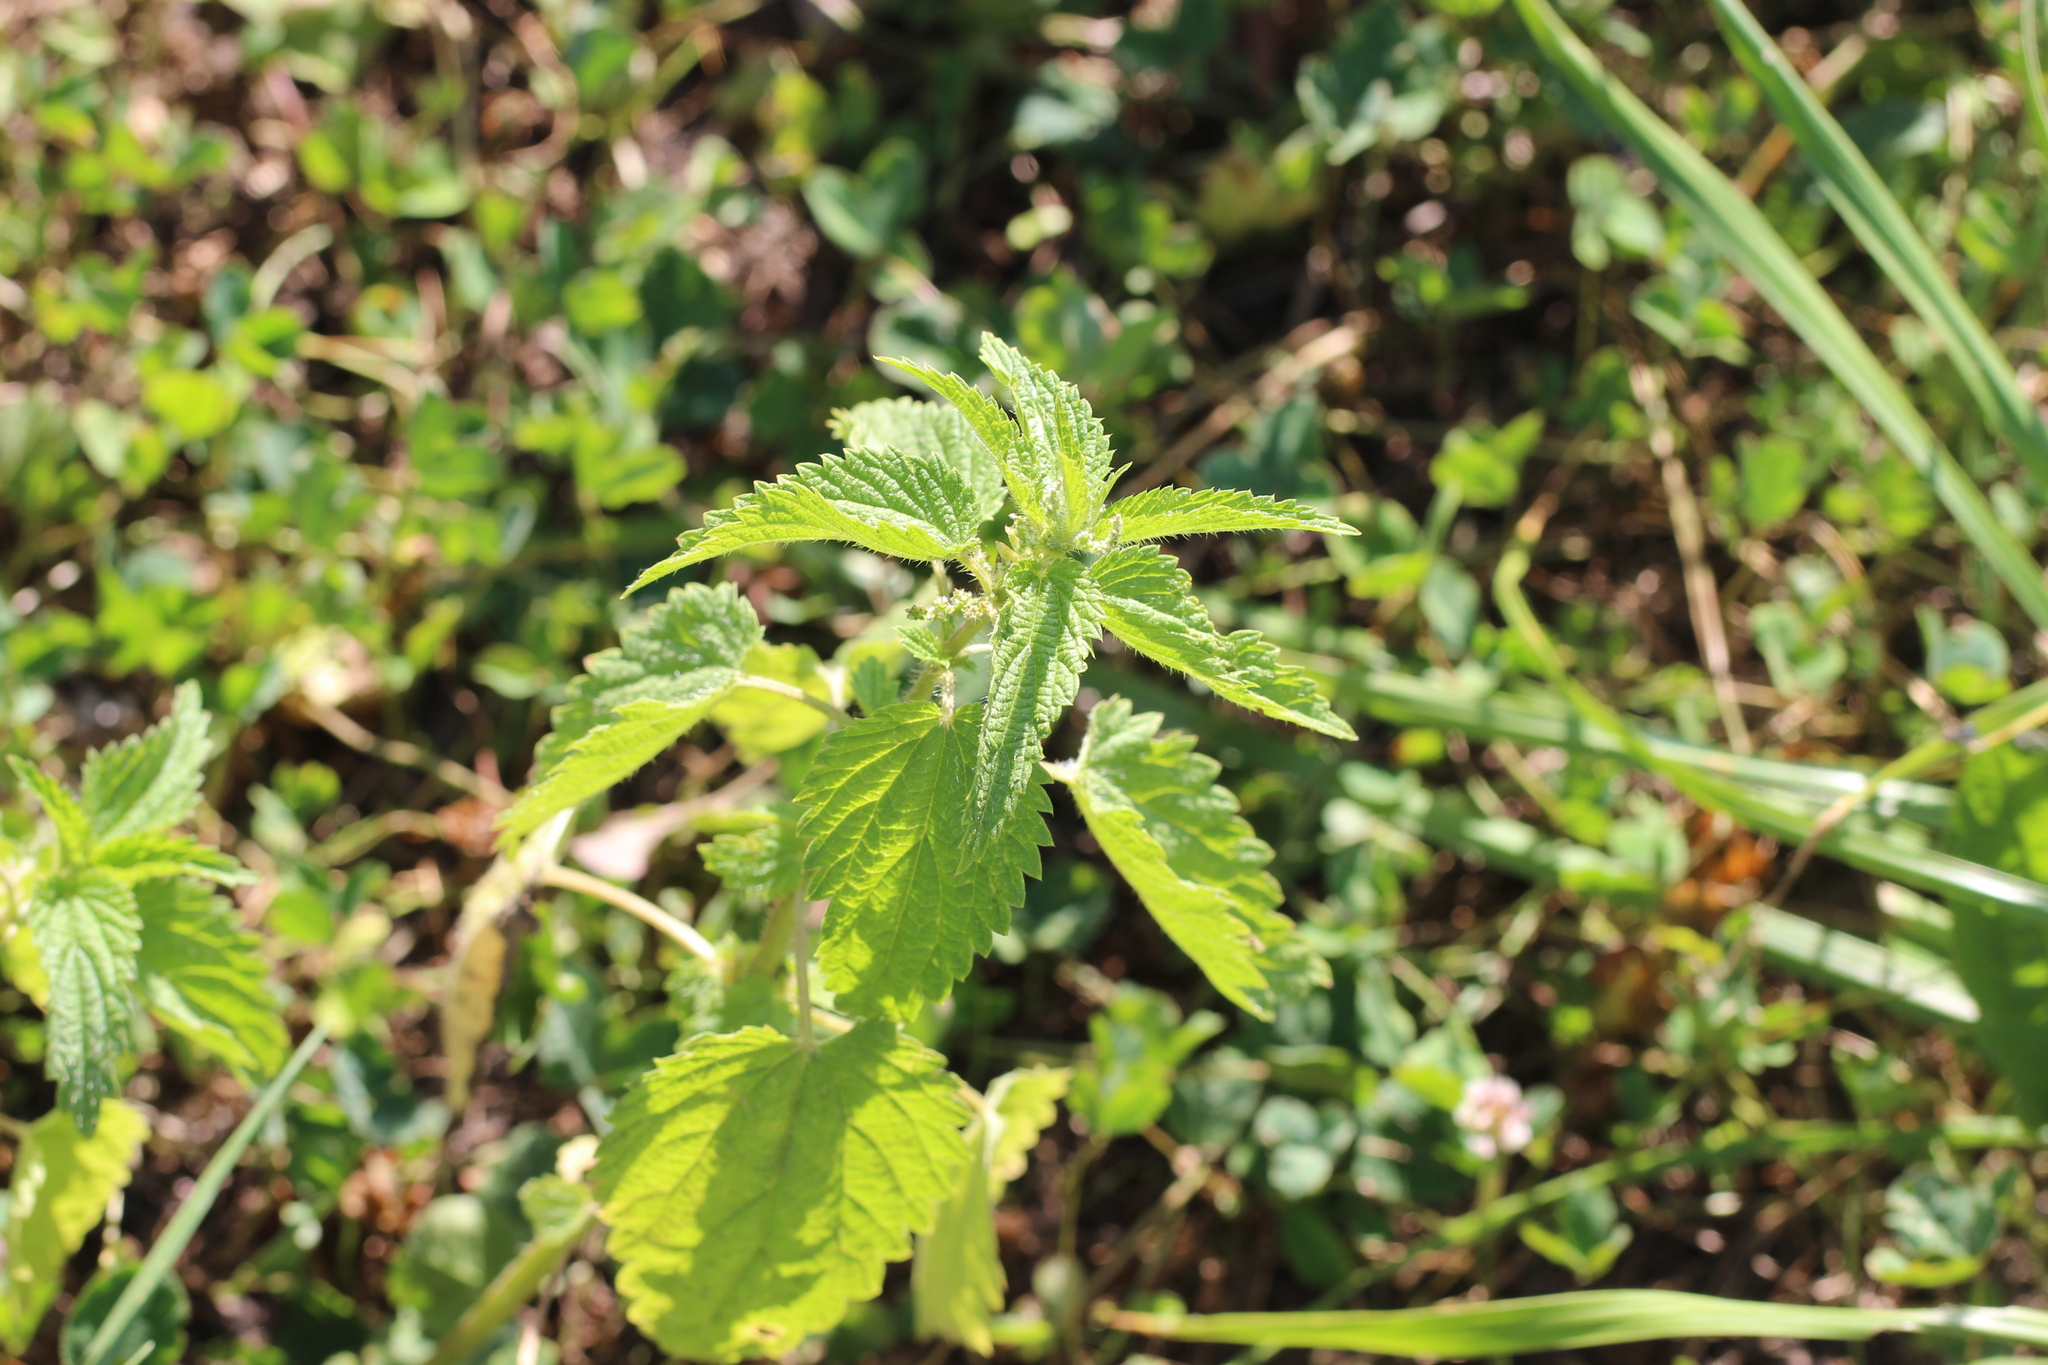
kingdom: Plantae
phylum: Tracheophyta
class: Magnoliopsida
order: Rosales
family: Urticaceae
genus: Urtica
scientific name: Urtica dioica
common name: Common nettle
